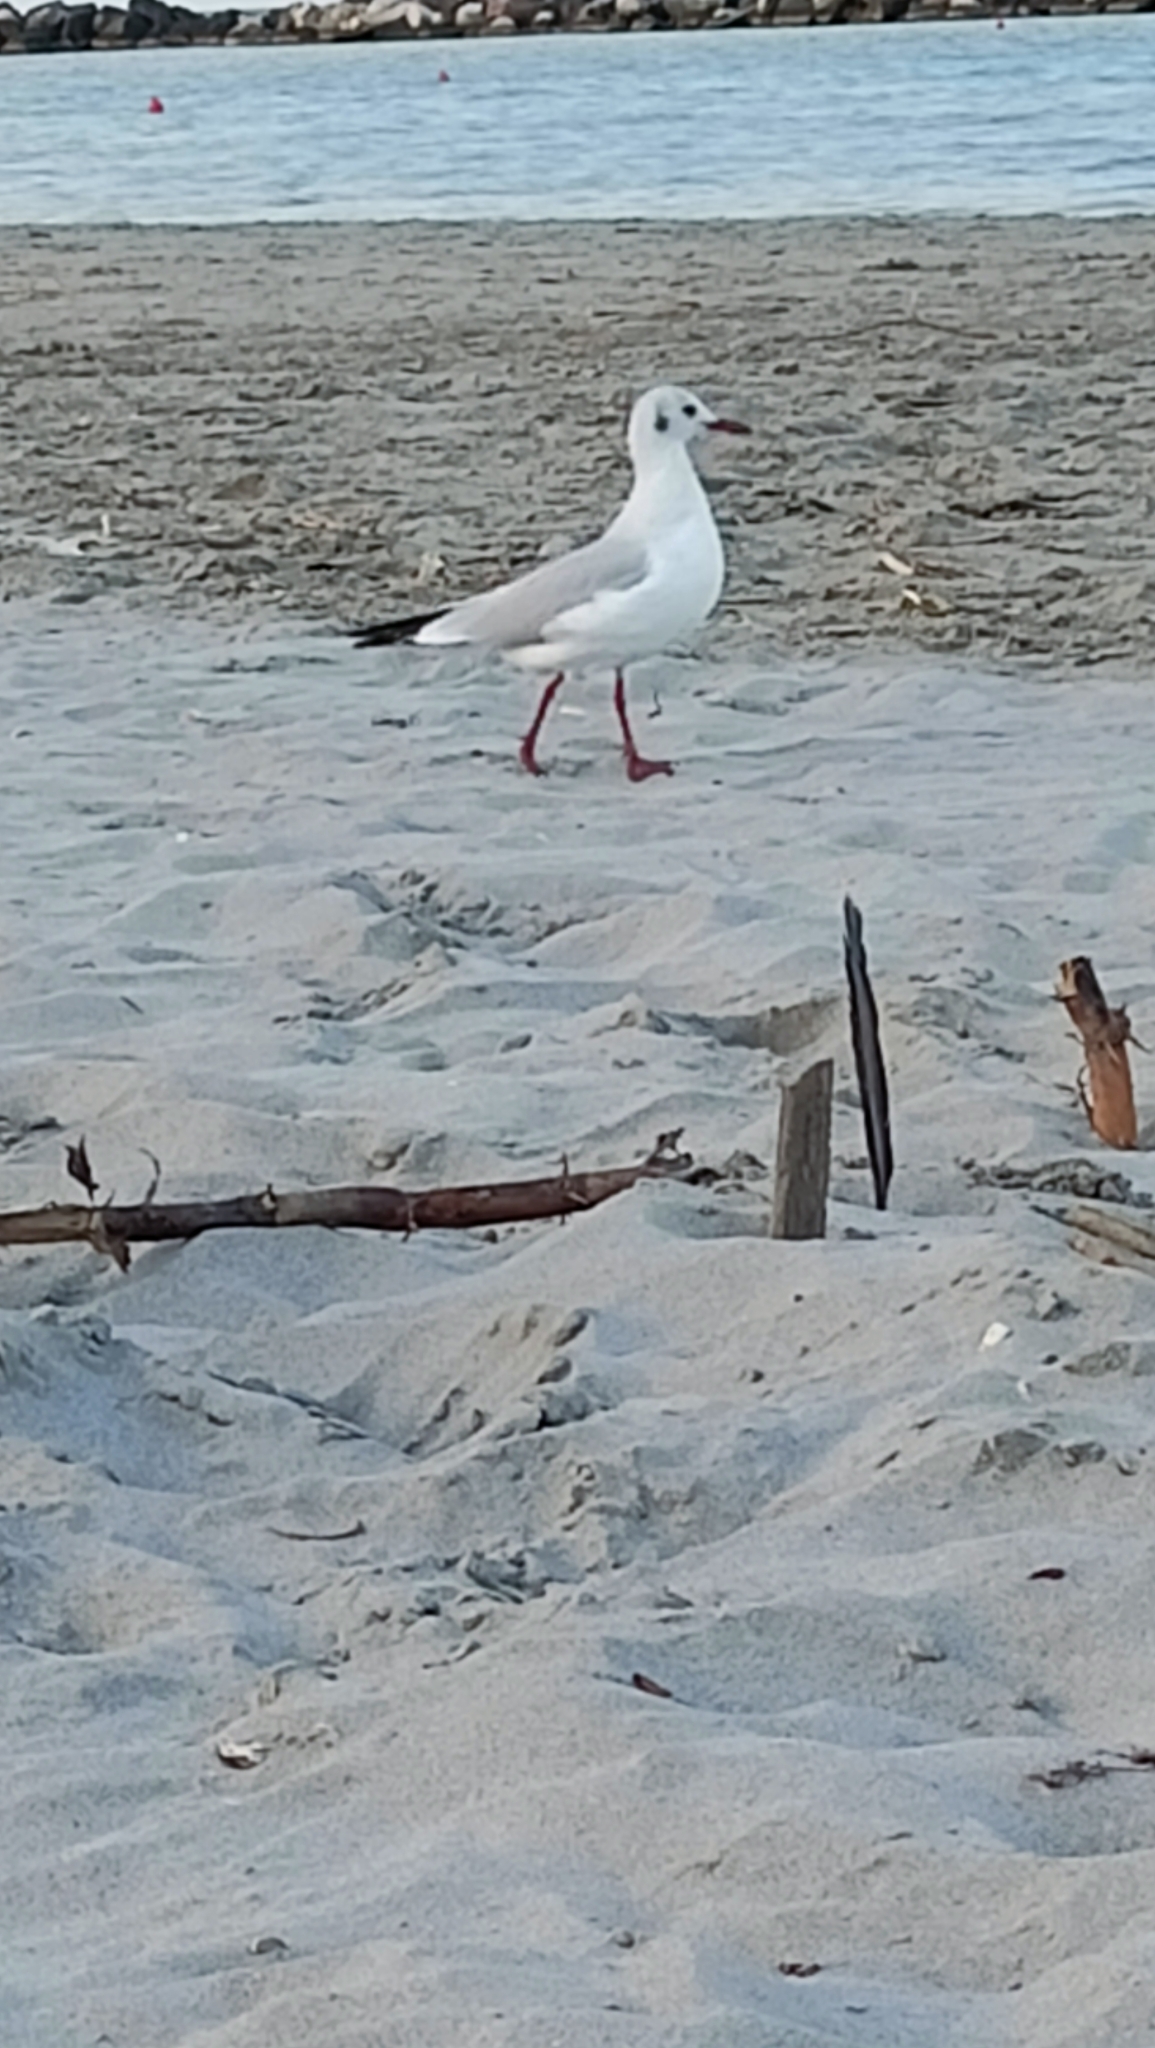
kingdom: Animalia
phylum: Chordata
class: Aves
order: Charadriiformes
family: Laridae
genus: Chroicocephalus
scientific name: Chroicocephalus ridibundus
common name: Black-headed gull
